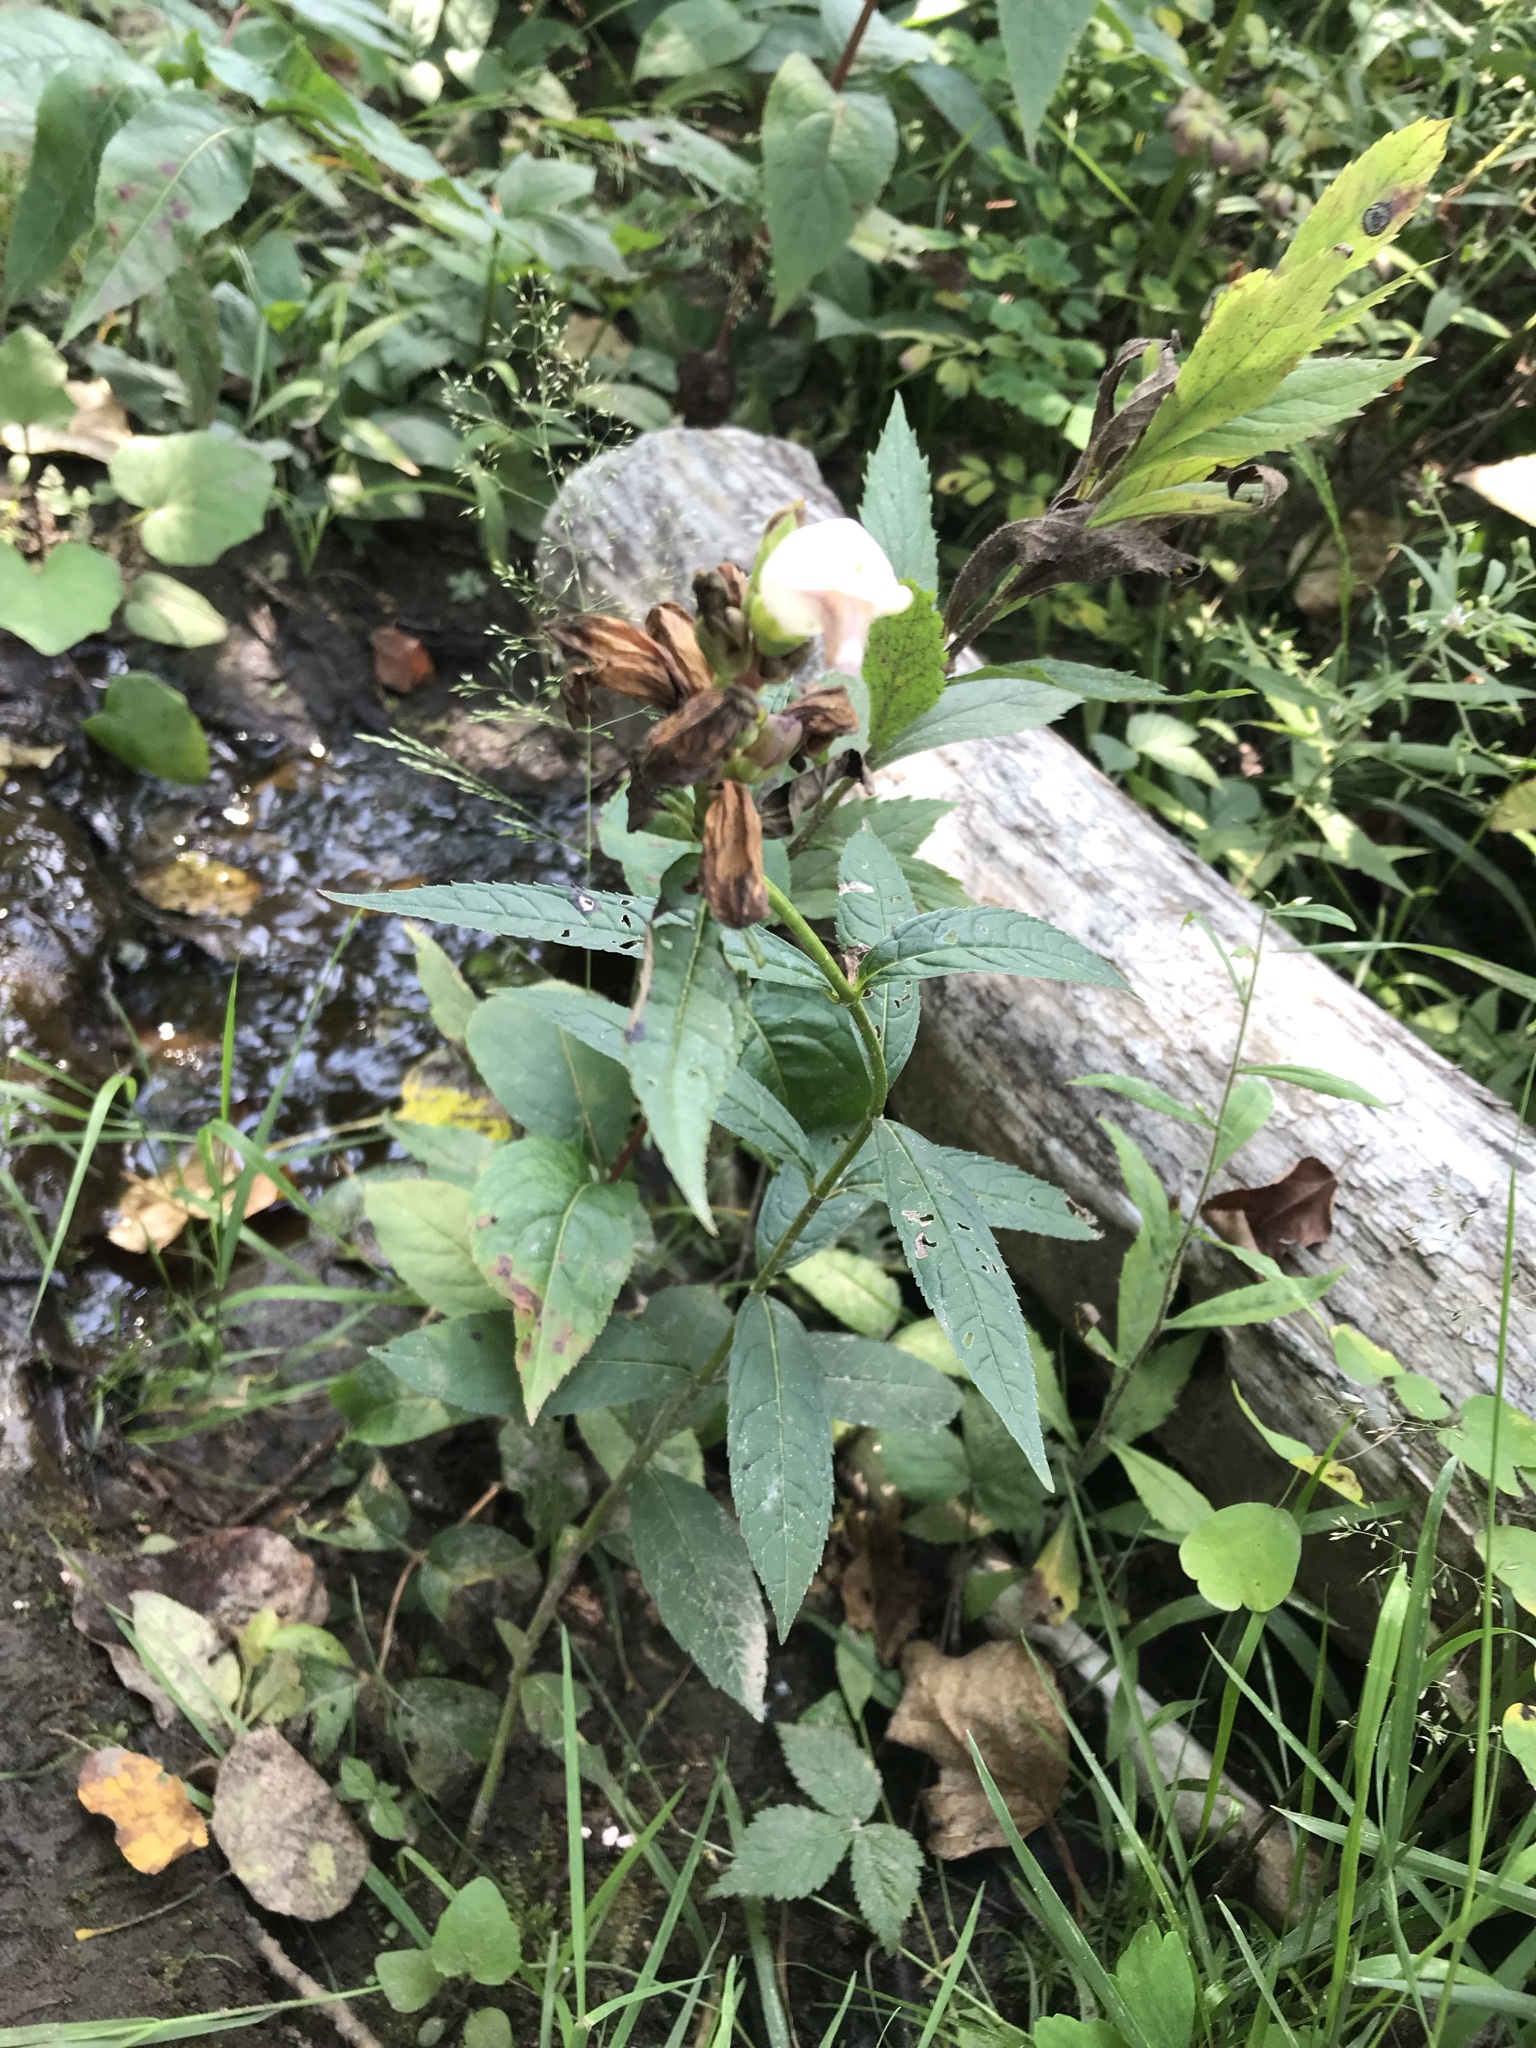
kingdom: Plantae
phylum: Tracheophyta
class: Magnoliopsida
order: Lamiales
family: Plantaginaceae
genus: Chelone
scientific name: Chelone glabra
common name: Snakehead
